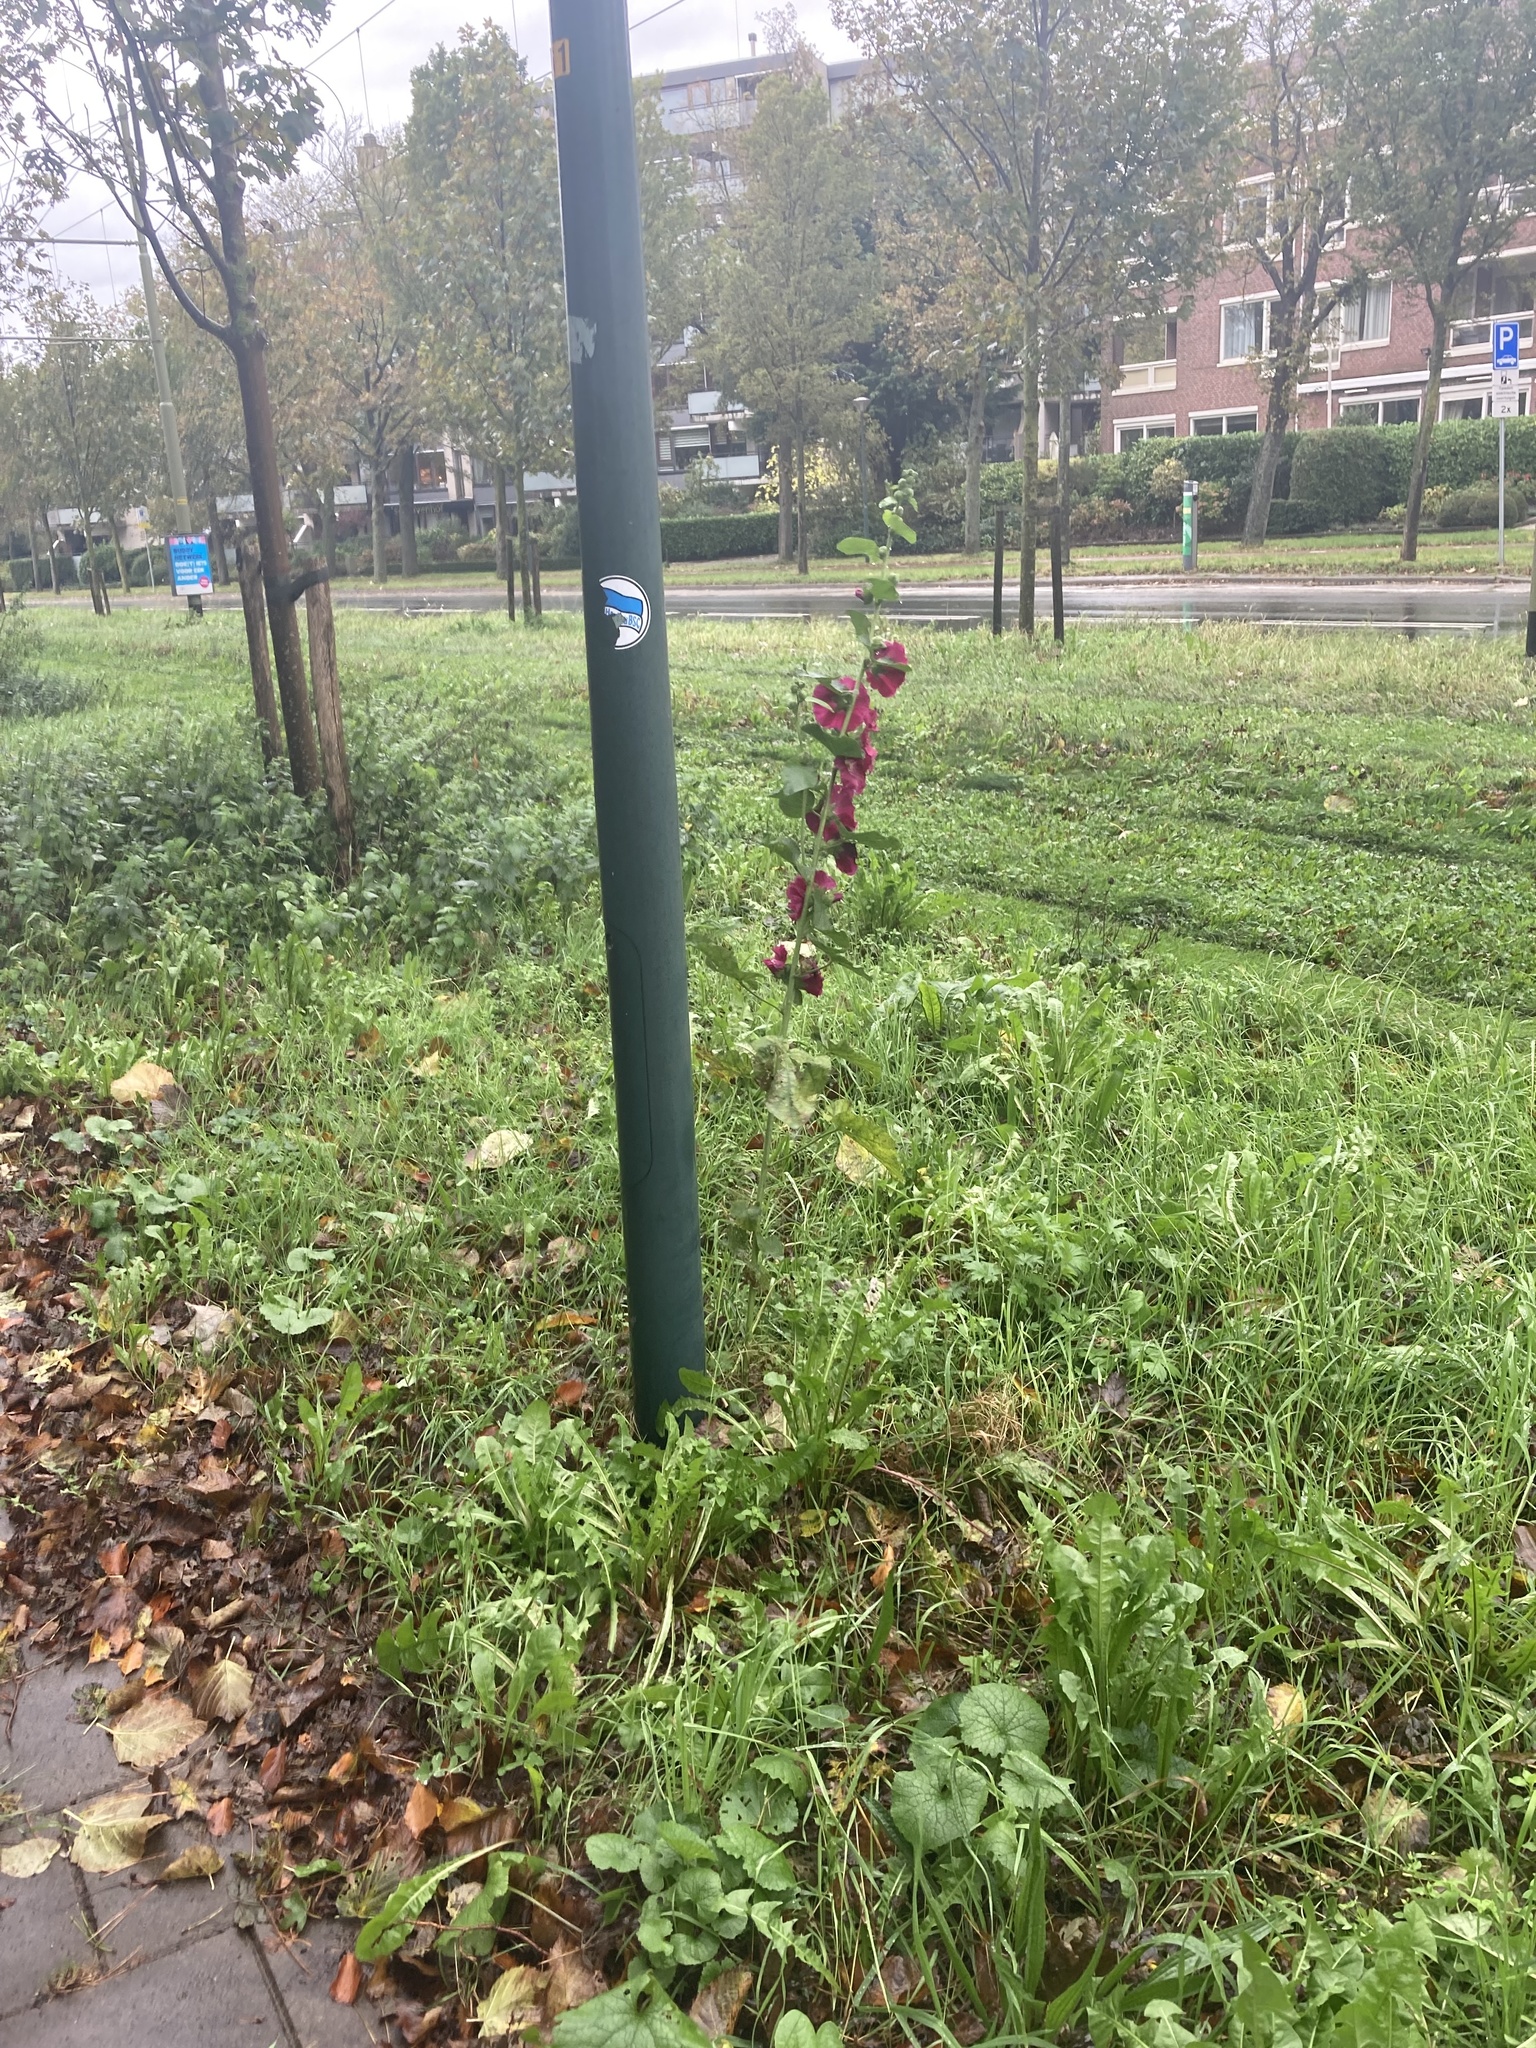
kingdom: Plantae
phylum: Tracheophyta
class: Magnoliopsida
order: Malvales
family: Malvaceae
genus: Alcea
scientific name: Alcea rosea
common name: Hollyhock
